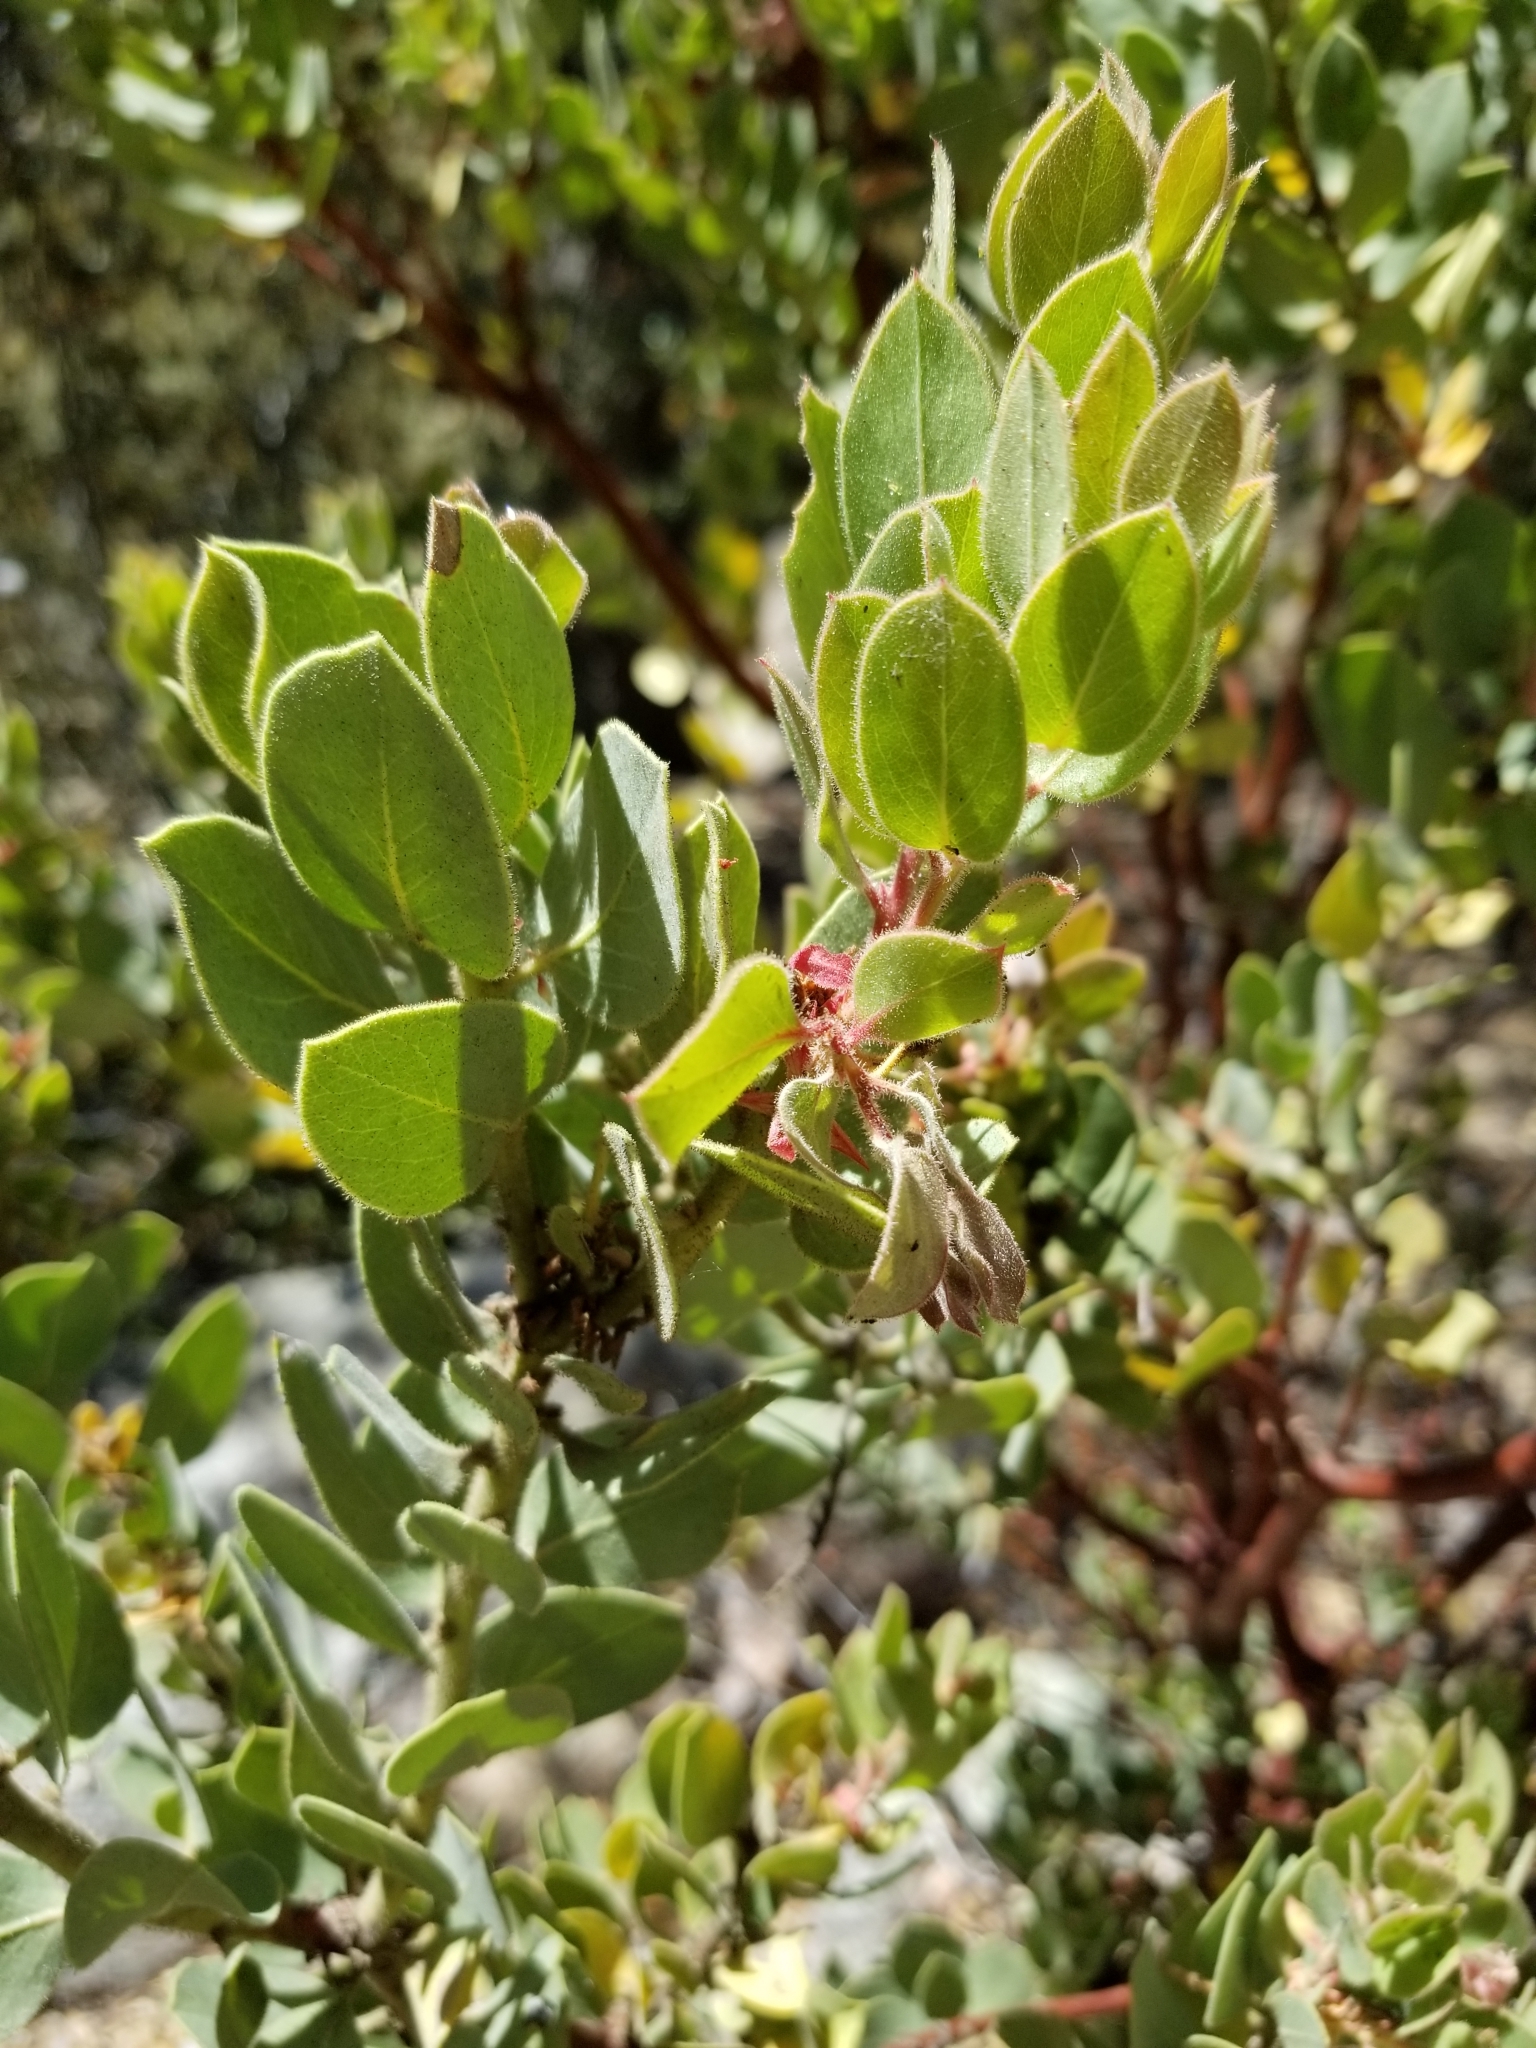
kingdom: Plantae
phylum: Tracheophyta
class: Magnoliopsida
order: Ericales
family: Ericaceae
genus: Arctostaphylos
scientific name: Arctostaphylos pringlei
